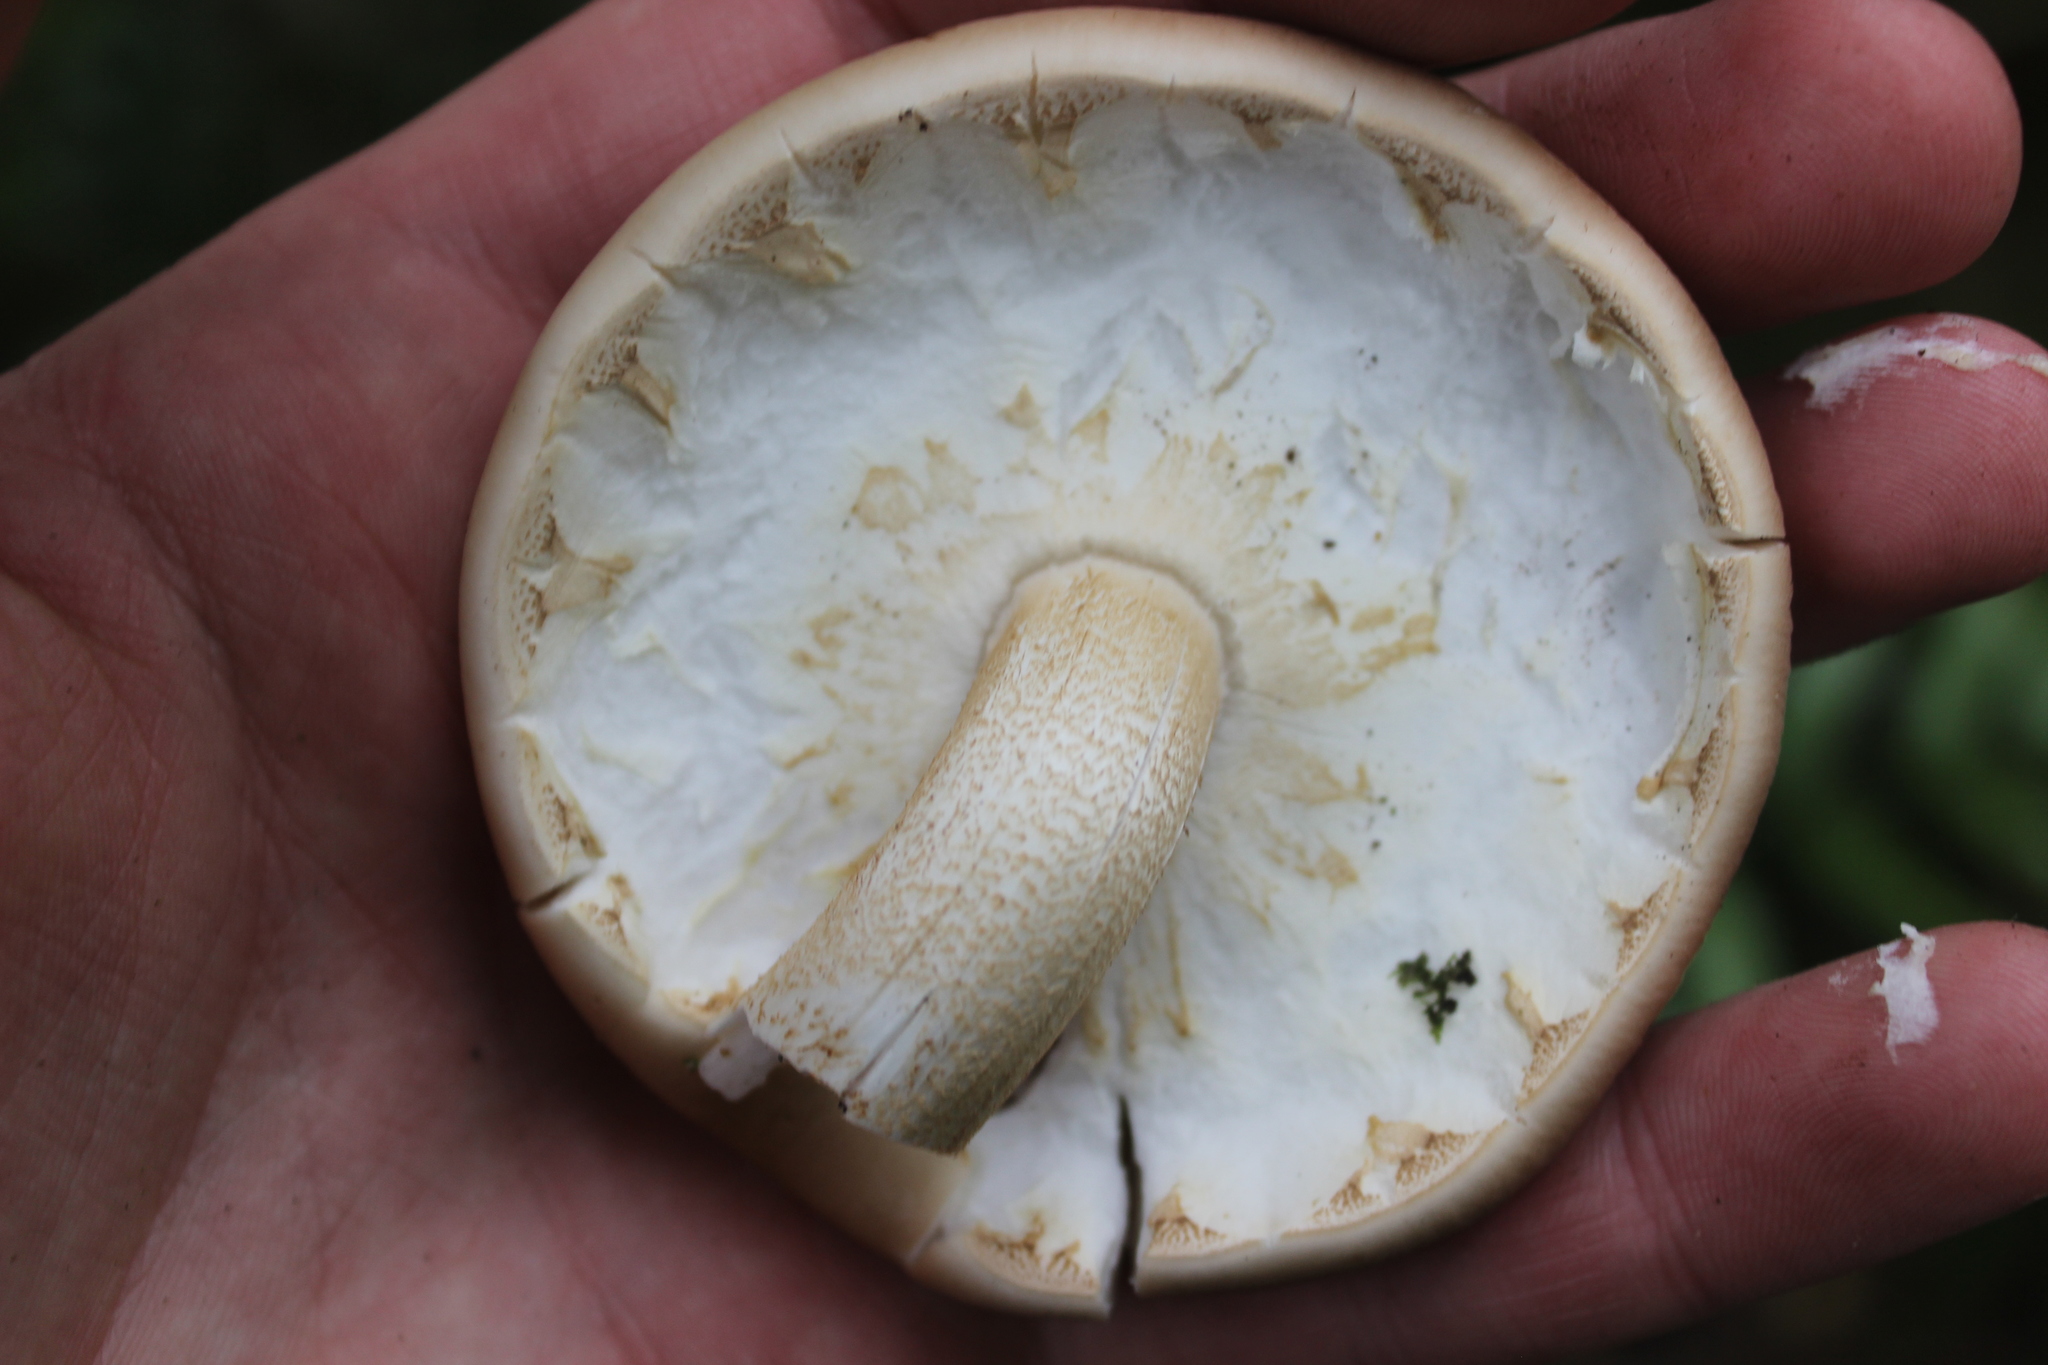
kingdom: Fungi
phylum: Basidiomycota
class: Agaricomycetes
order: Agaricales
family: Tubariaceae
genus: Cyclocybe
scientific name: Cyclocybe parasitica
